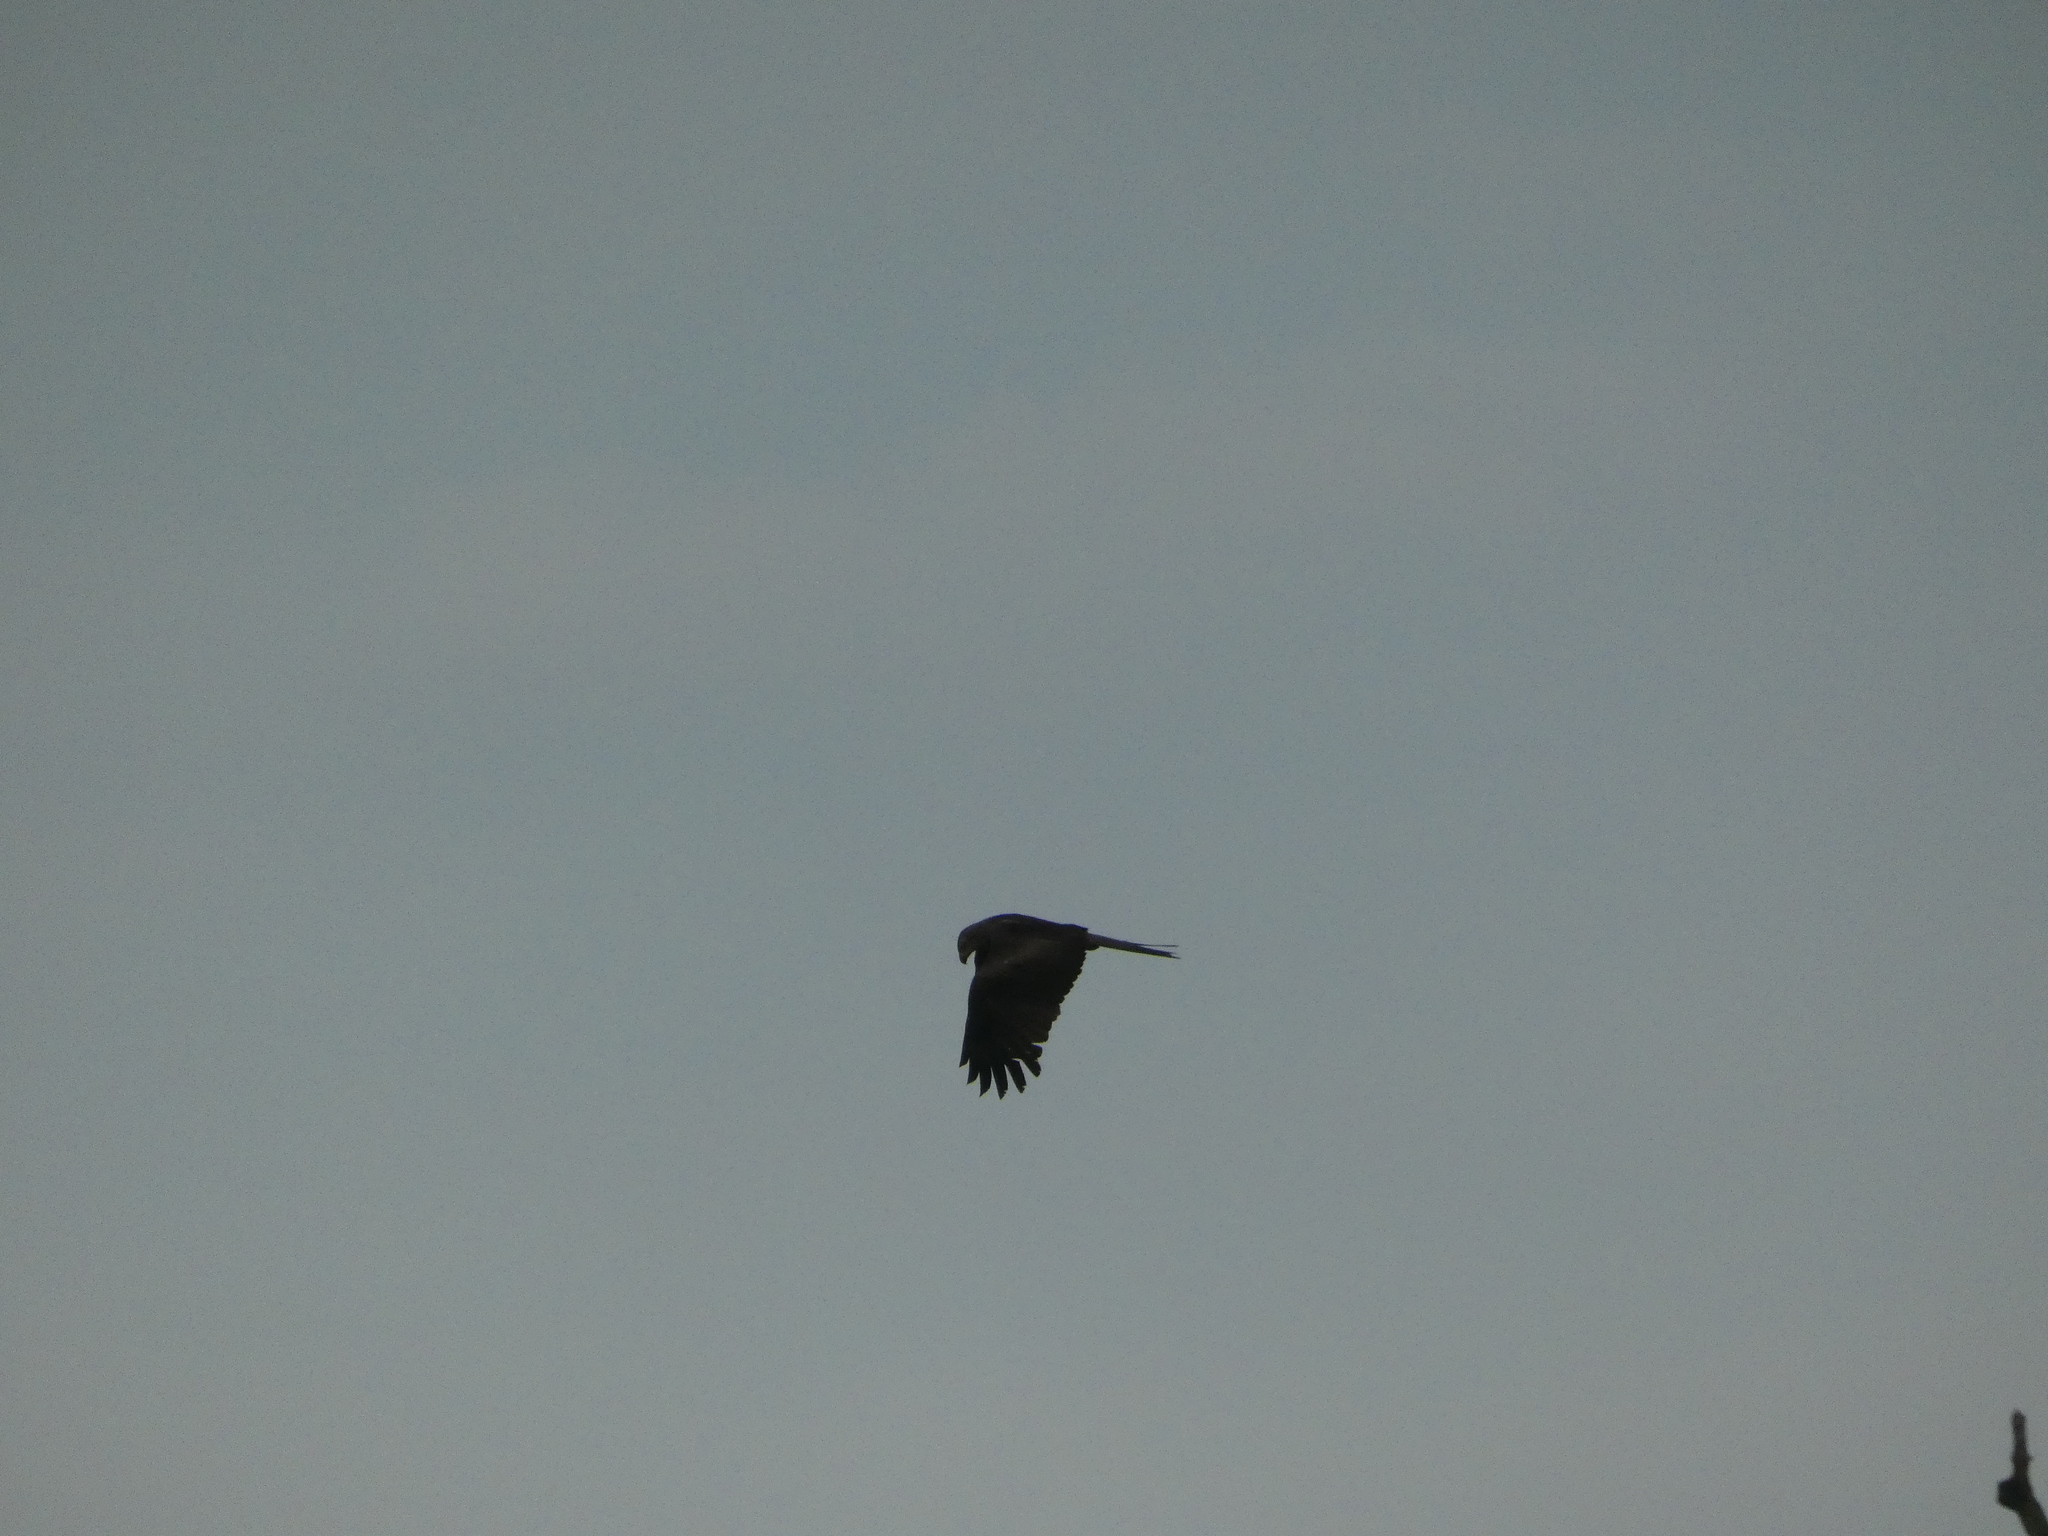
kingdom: Animalia
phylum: Chordata
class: Aves
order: Accipitriformes
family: Accipitridae
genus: Milvus
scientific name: Milvus migrans
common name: Black kite
